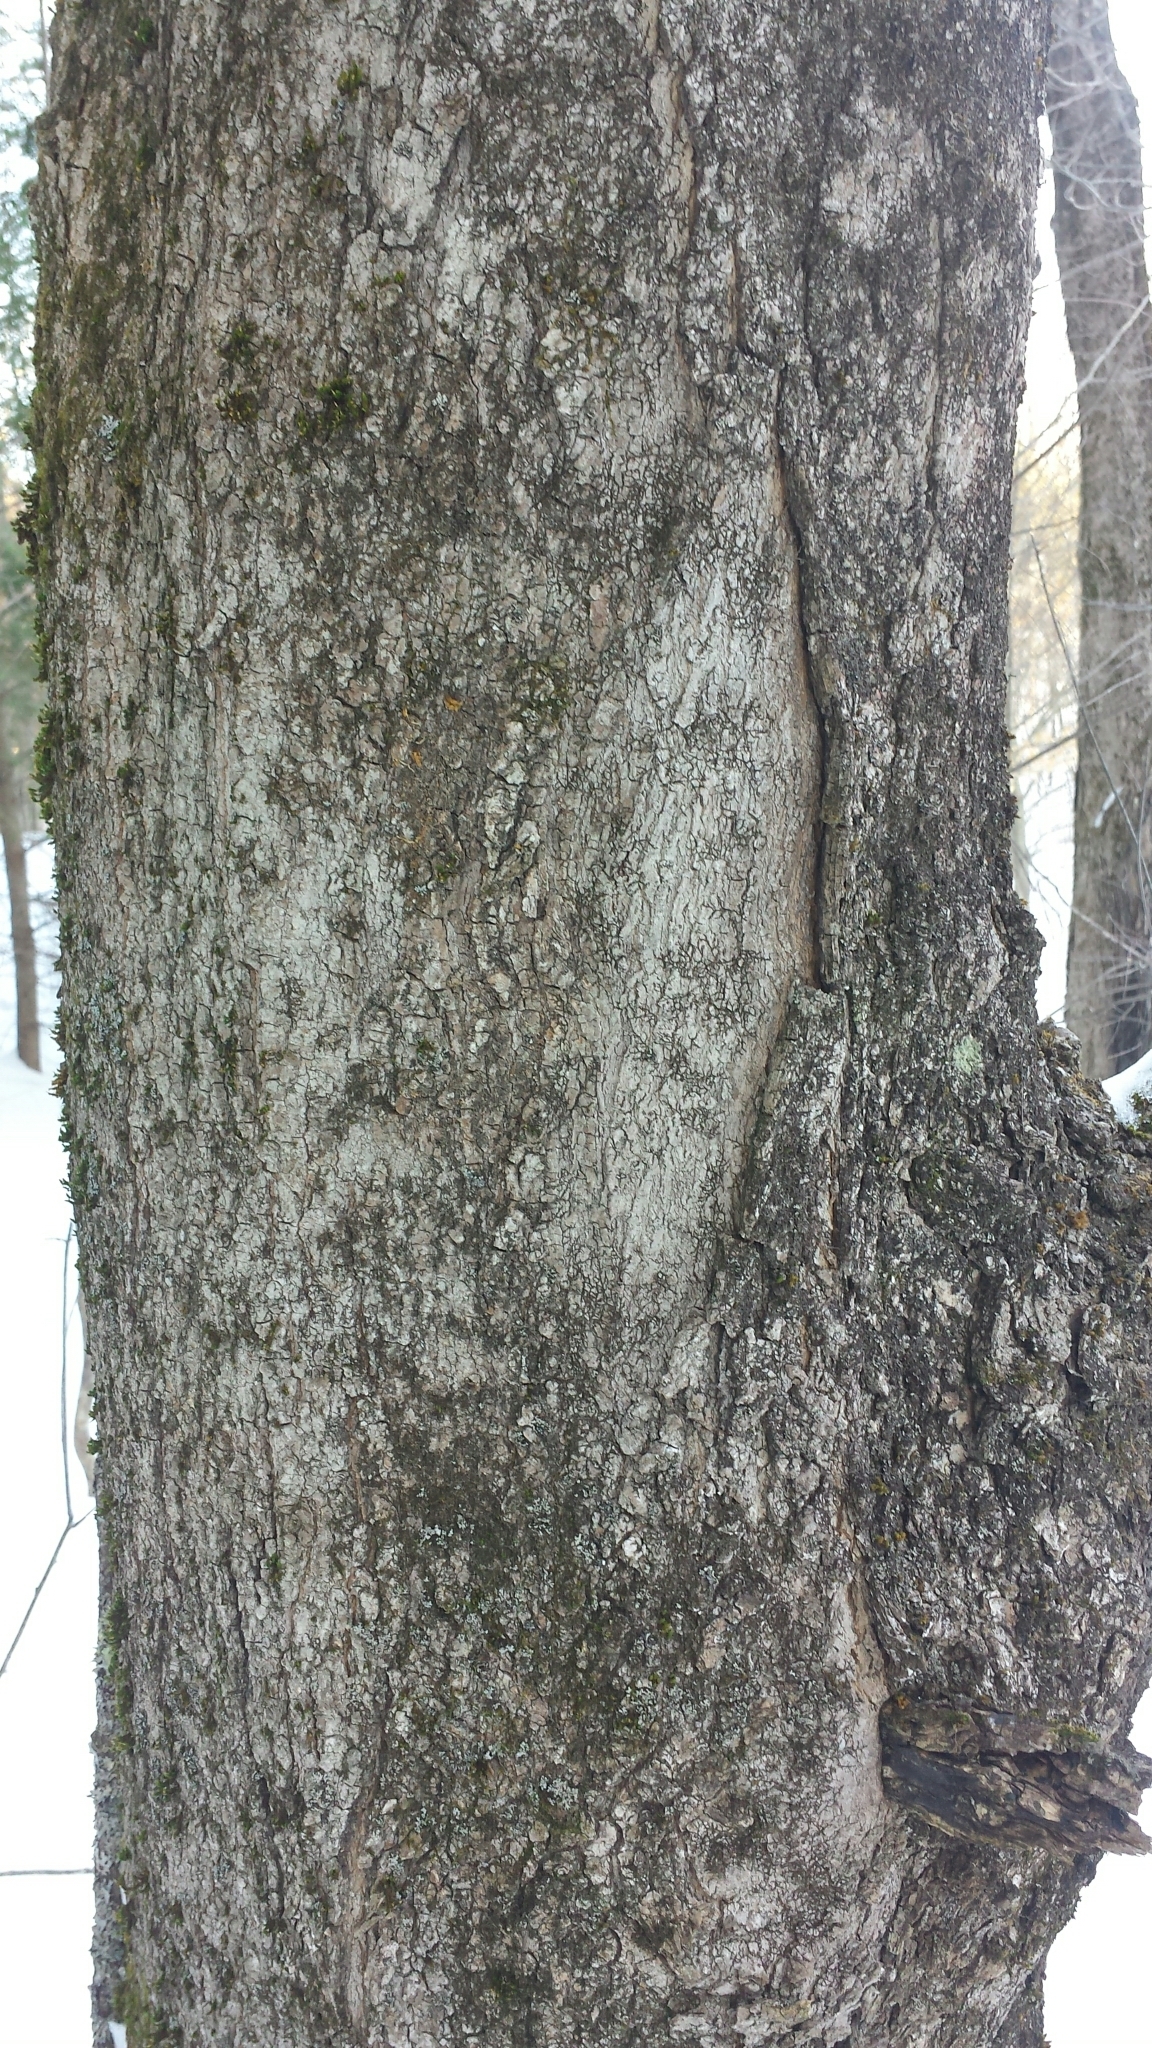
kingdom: Plantae
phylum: Tracheophyta
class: Magnoliopsida
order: Sapindales
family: Sapindaceae
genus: Acer
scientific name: Acer saccharum
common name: Sugar maple
